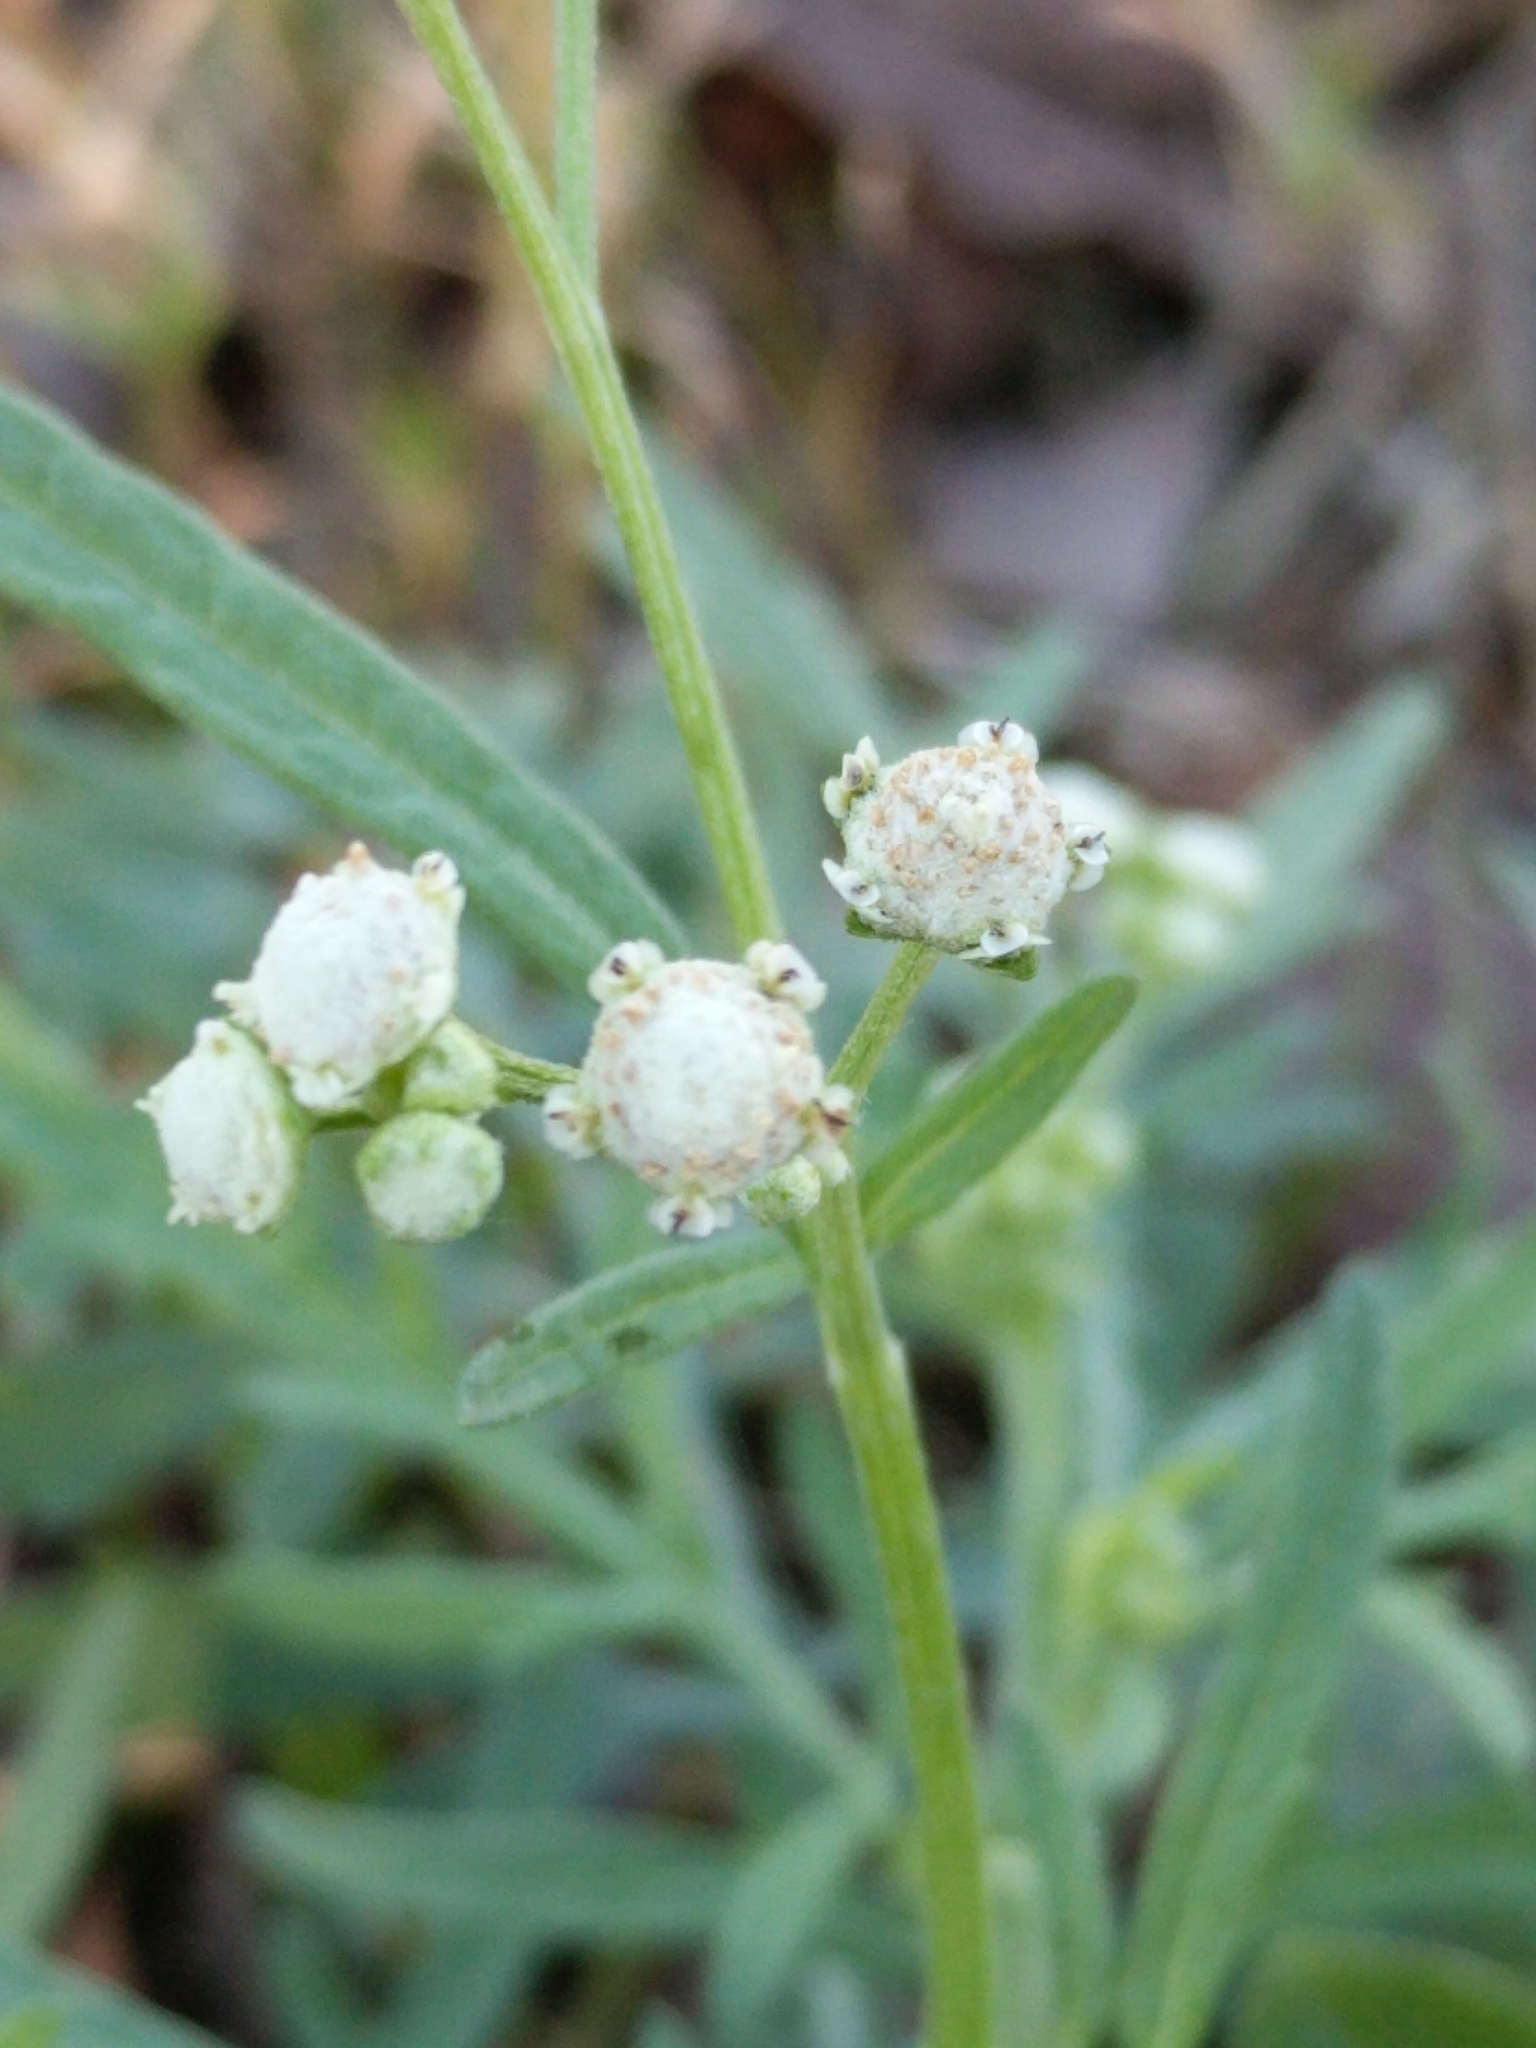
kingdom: Plantae
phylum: Tracheophyta
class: Magnoliopsida
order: Asterales
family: Asteraceae
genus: Parthenium
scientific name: Parthenium hysterophorus
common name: Santa maria feverfew
